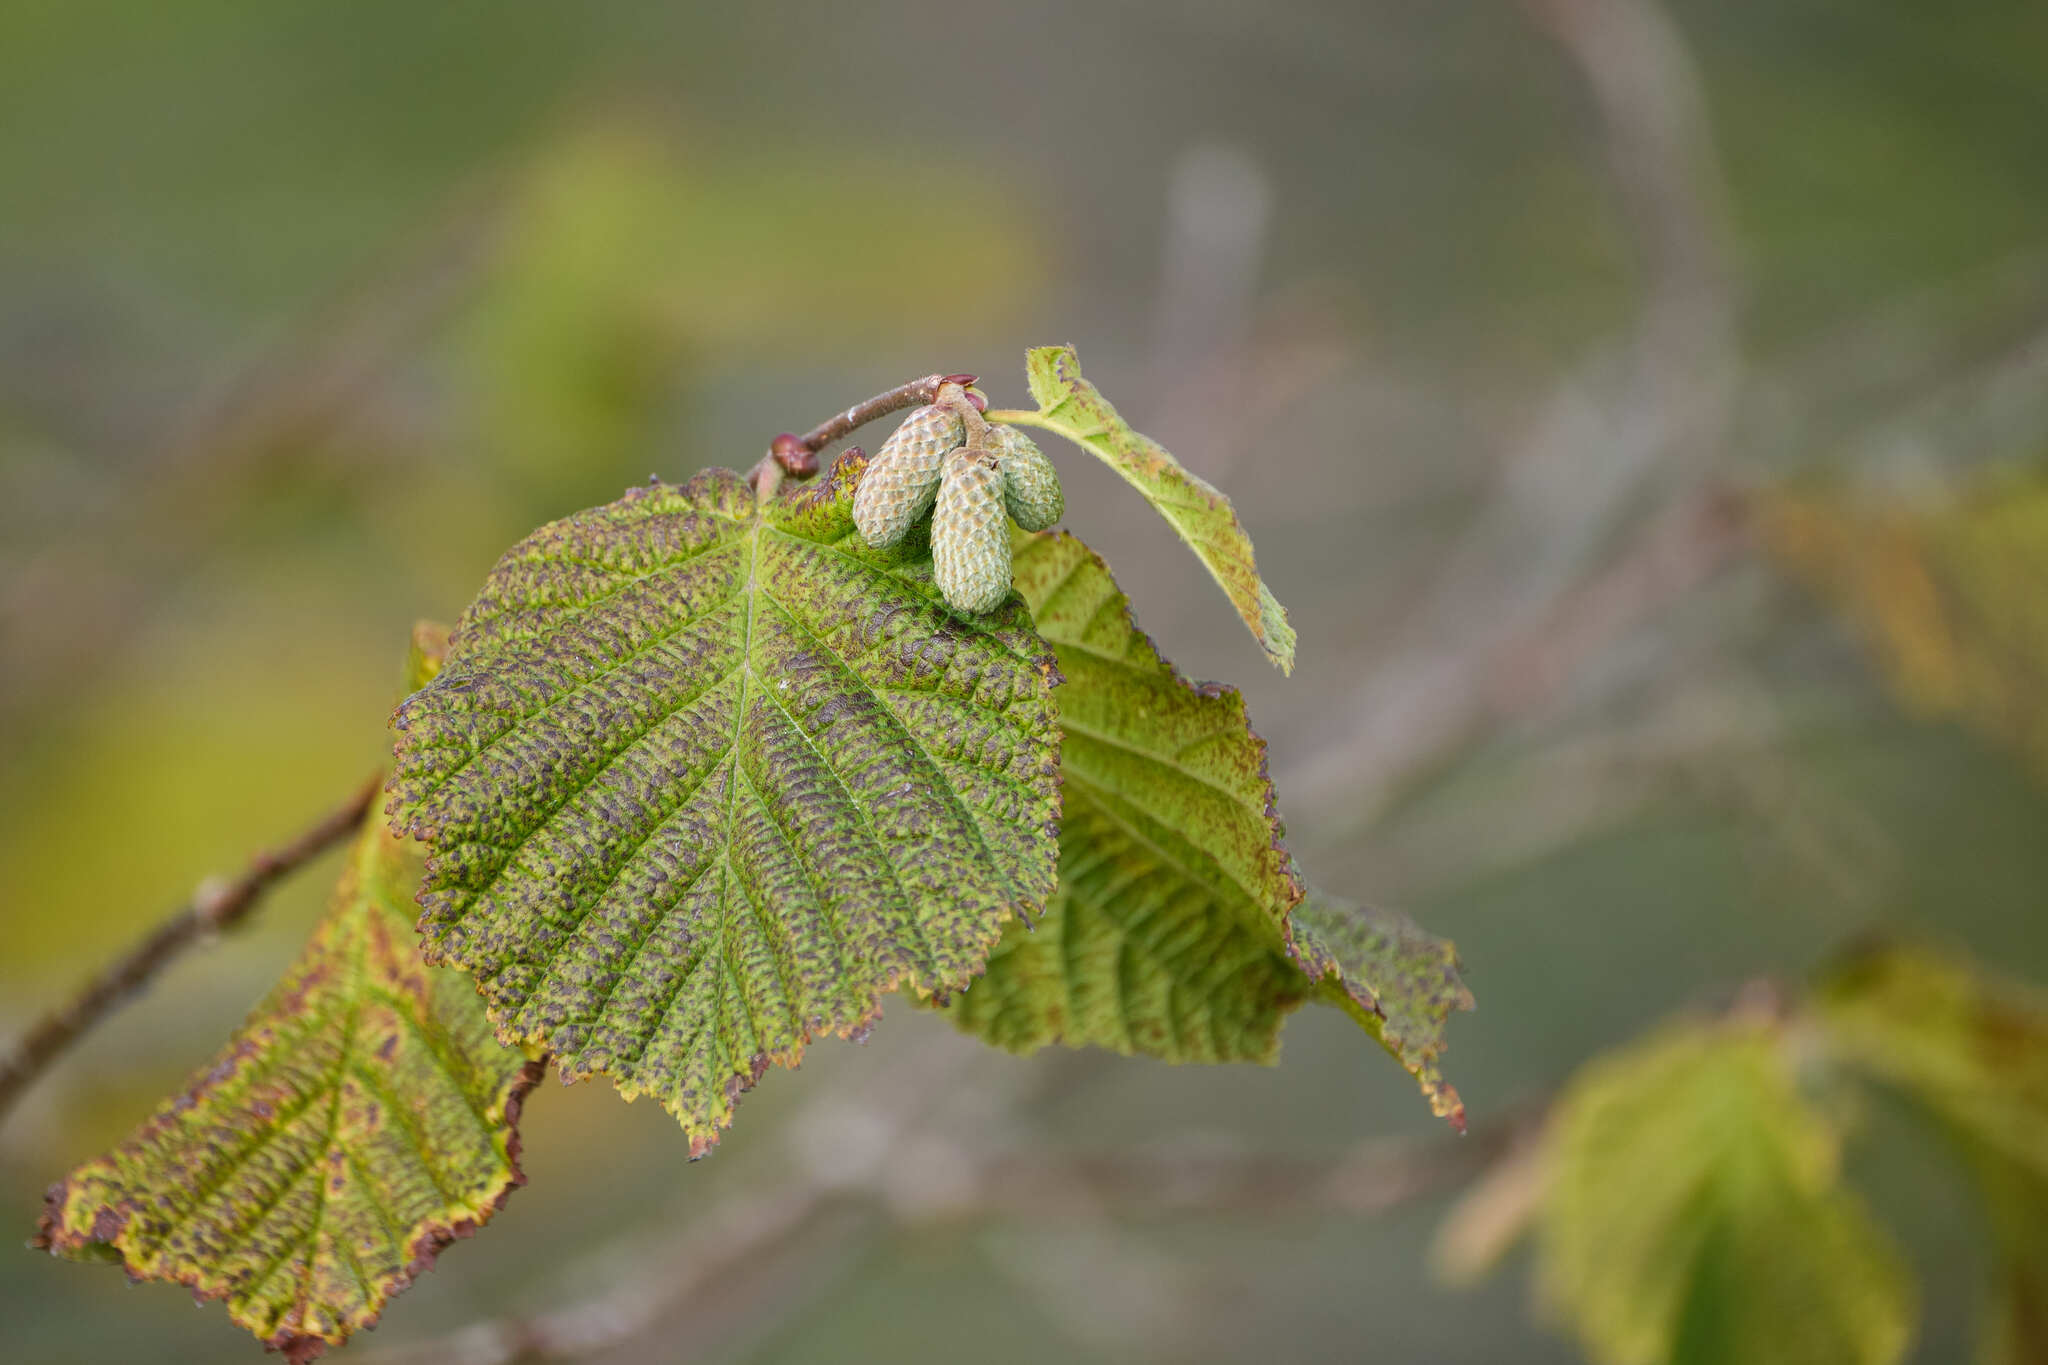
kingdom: Plantae
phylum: Tracheophyta
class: Magnoliopsida
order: Fagales
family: Betulaceae
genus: Corylus
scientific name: Corylus avellana
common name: European hazel
